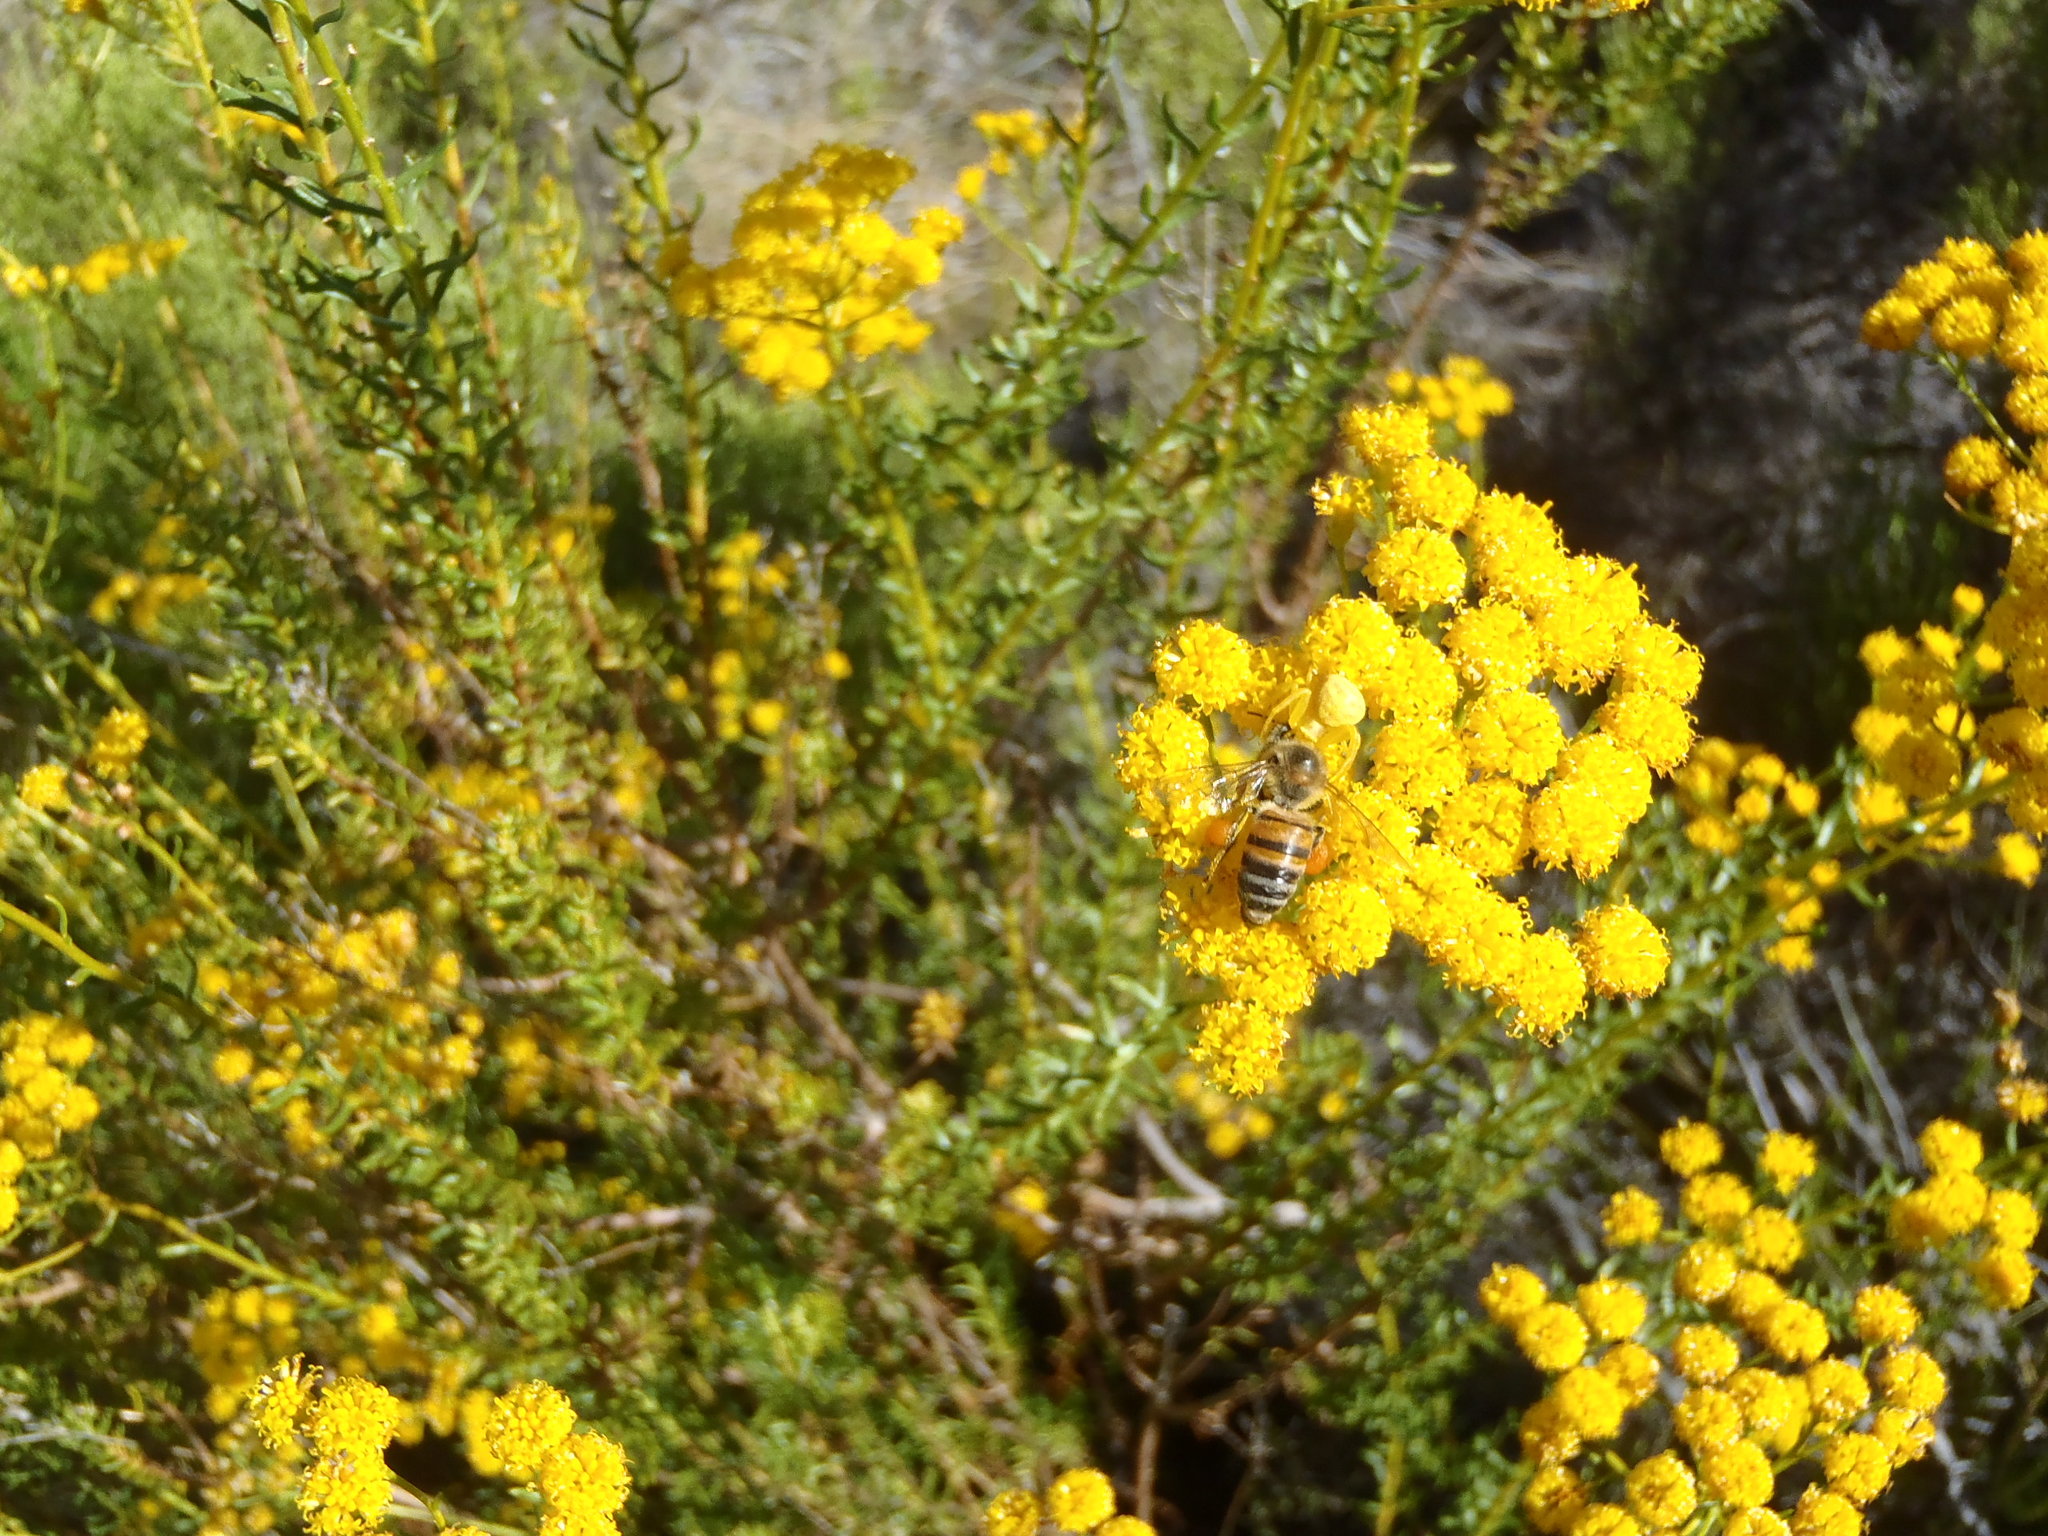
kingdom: Plantae
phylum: Tracheophyta
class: Magnoliopsida
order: Asterales
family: Asteraceae
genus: Athanasia
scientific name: Athanasia flexuosa
